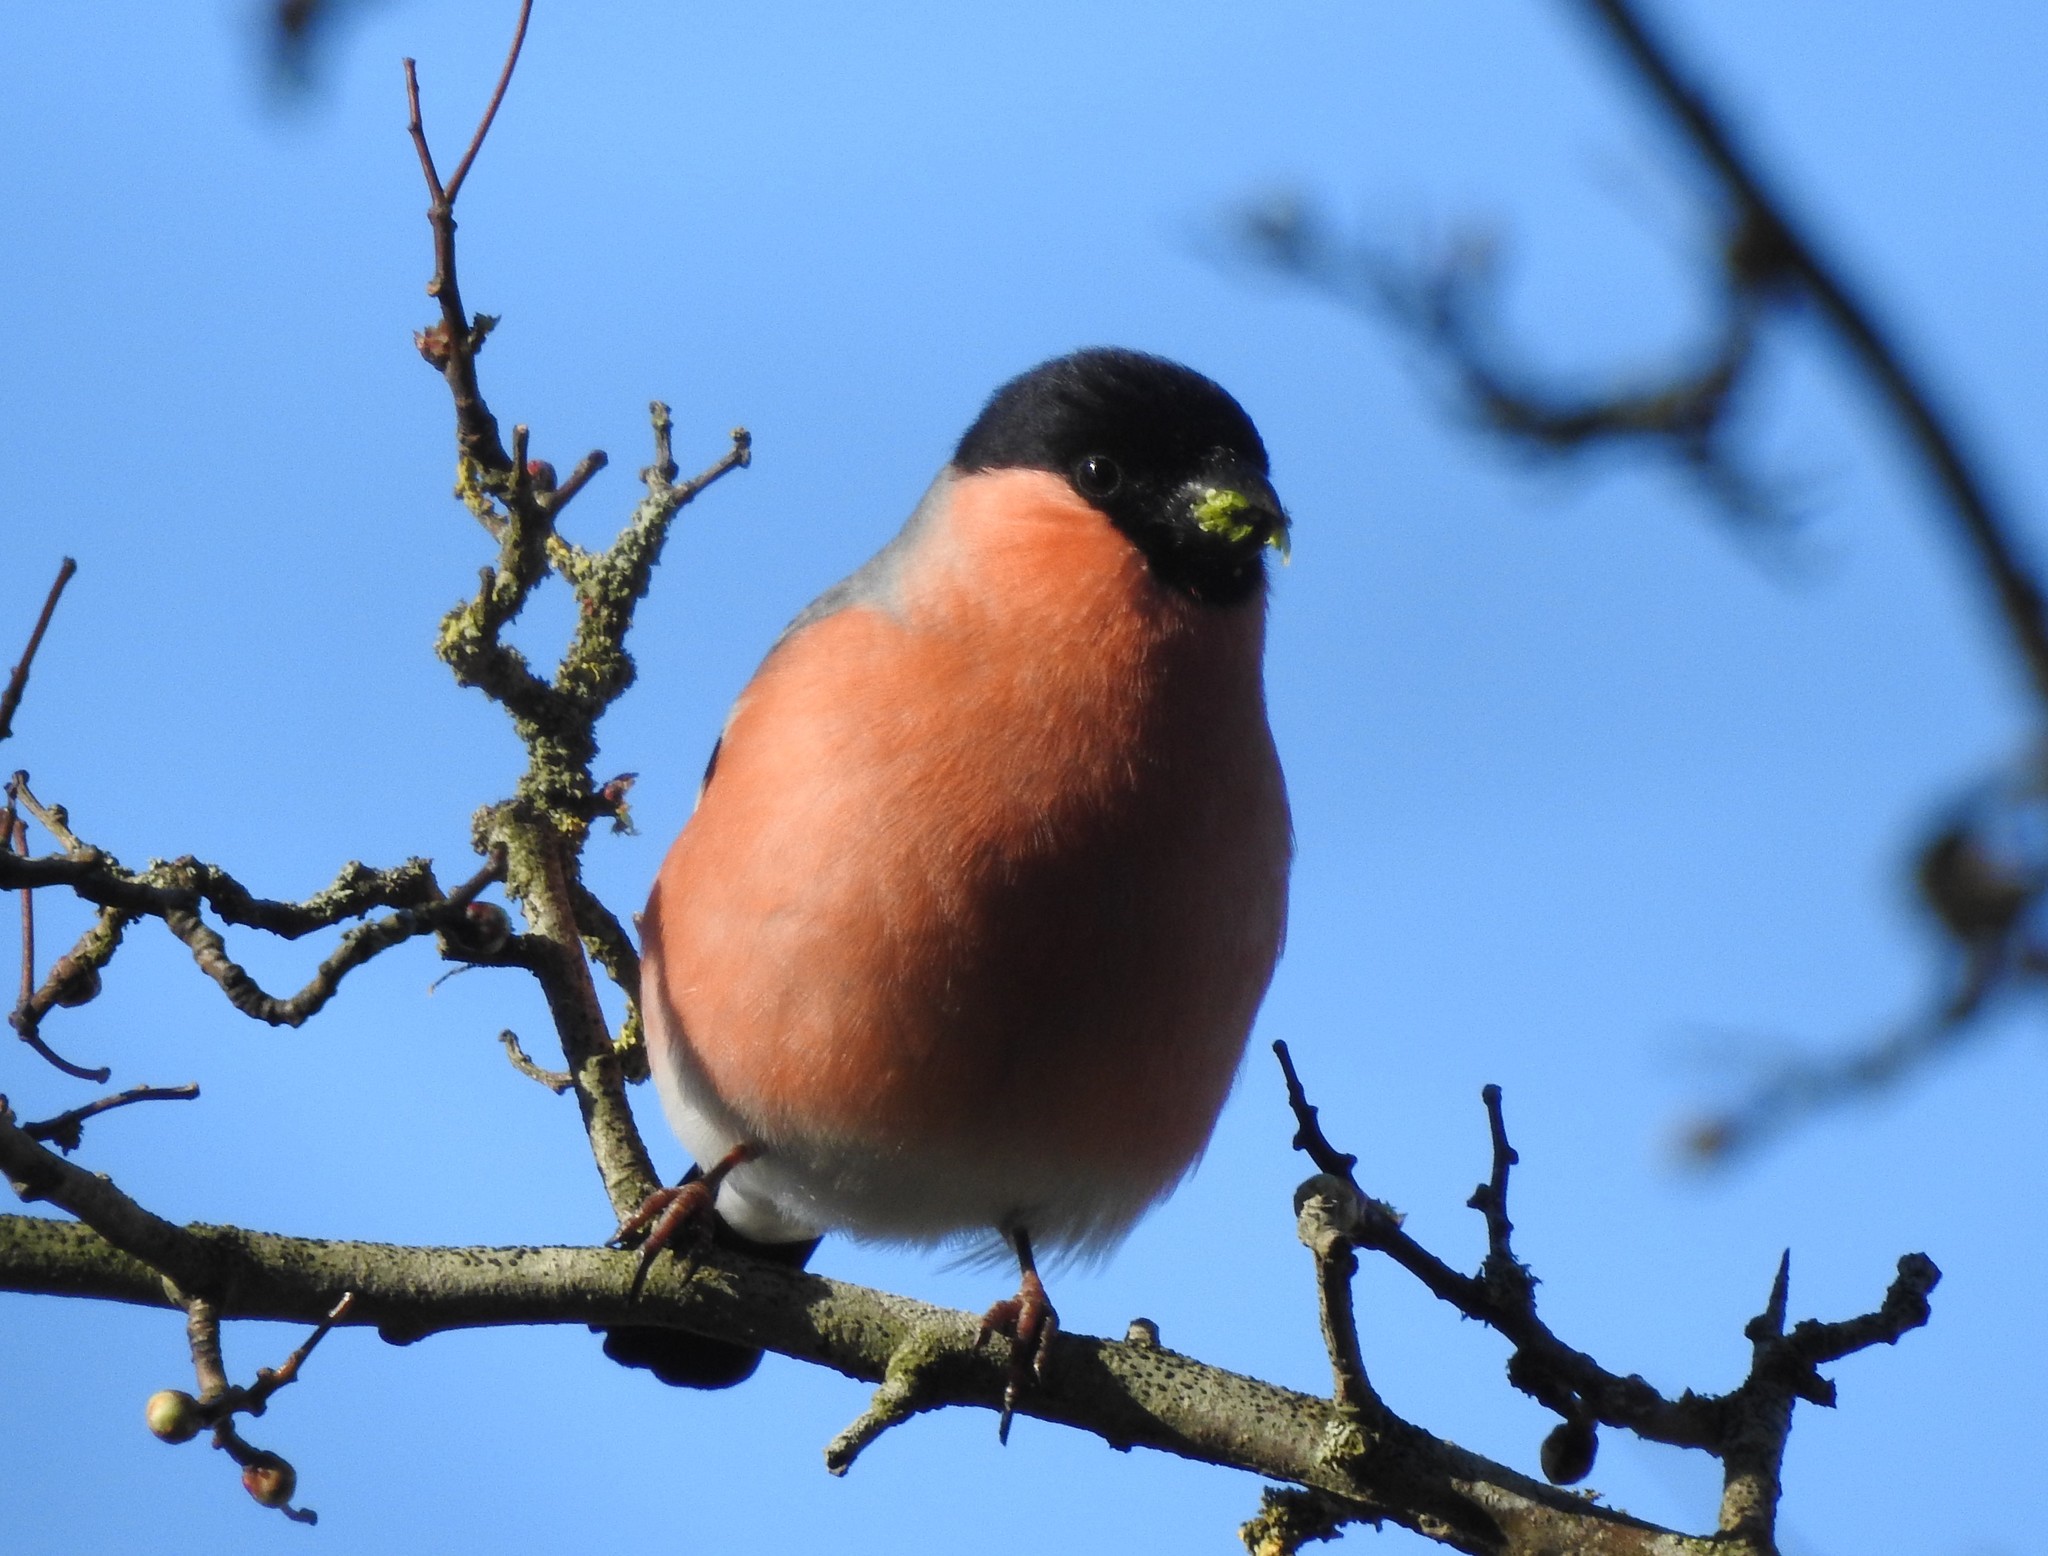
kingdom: Animalia
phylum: Chordata
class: Aves
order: Passeriformes
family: Fringillidae
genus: Pyrrhula
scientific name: Pyrrhula pyrrhula
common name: Eurasian bullfinch
